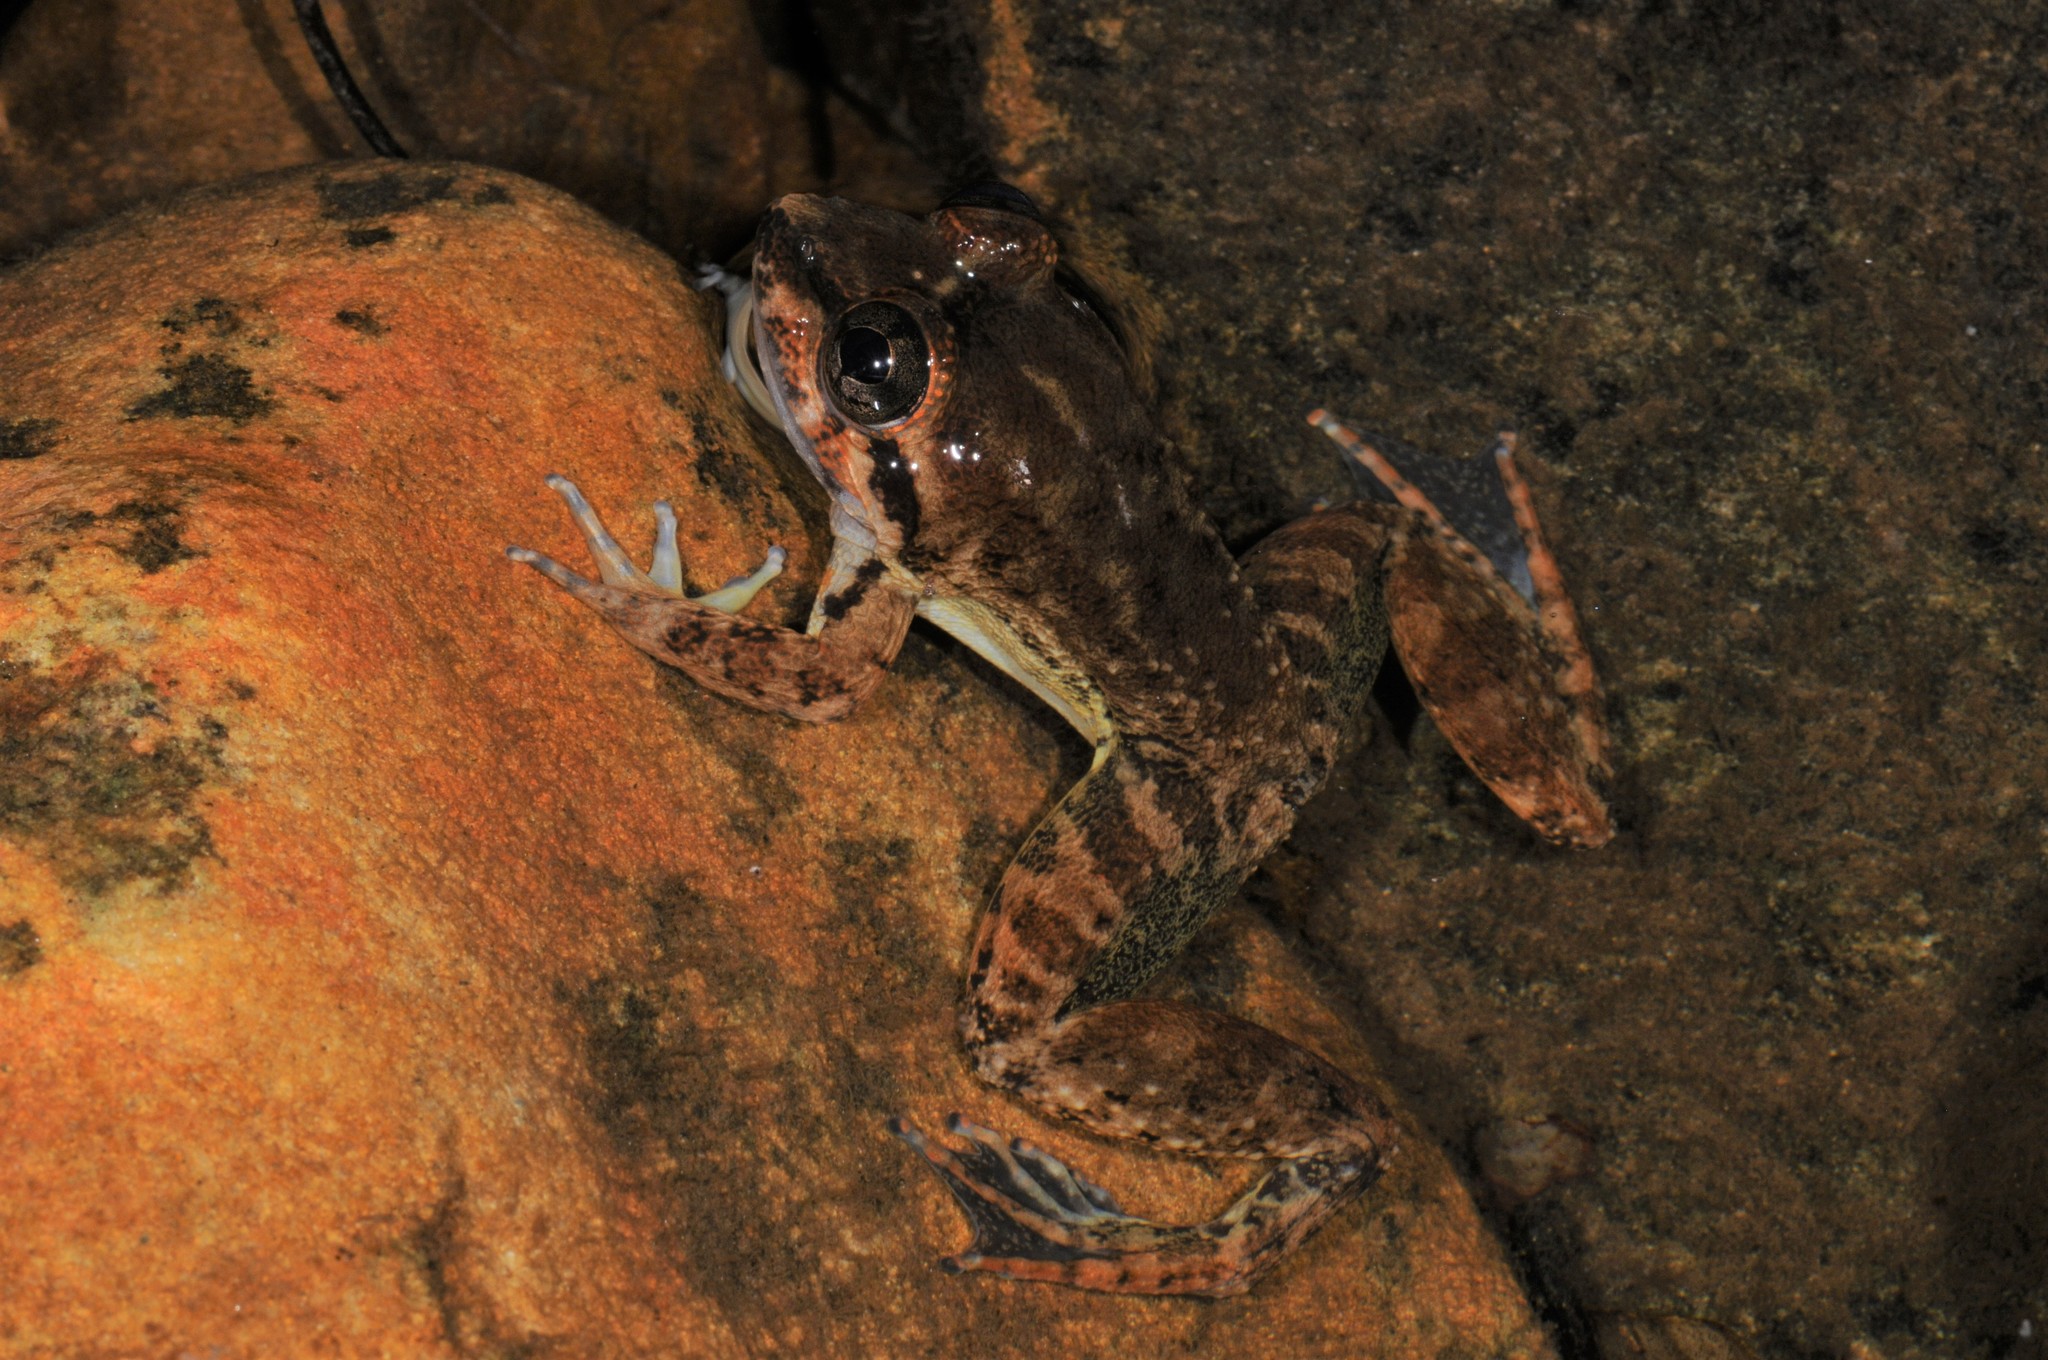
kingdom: Animalia
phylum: Chordata
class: Amphibia
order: Anura
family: Dicroglossidae
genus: Limnonectes
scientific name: Limnonectes conspicillatus
